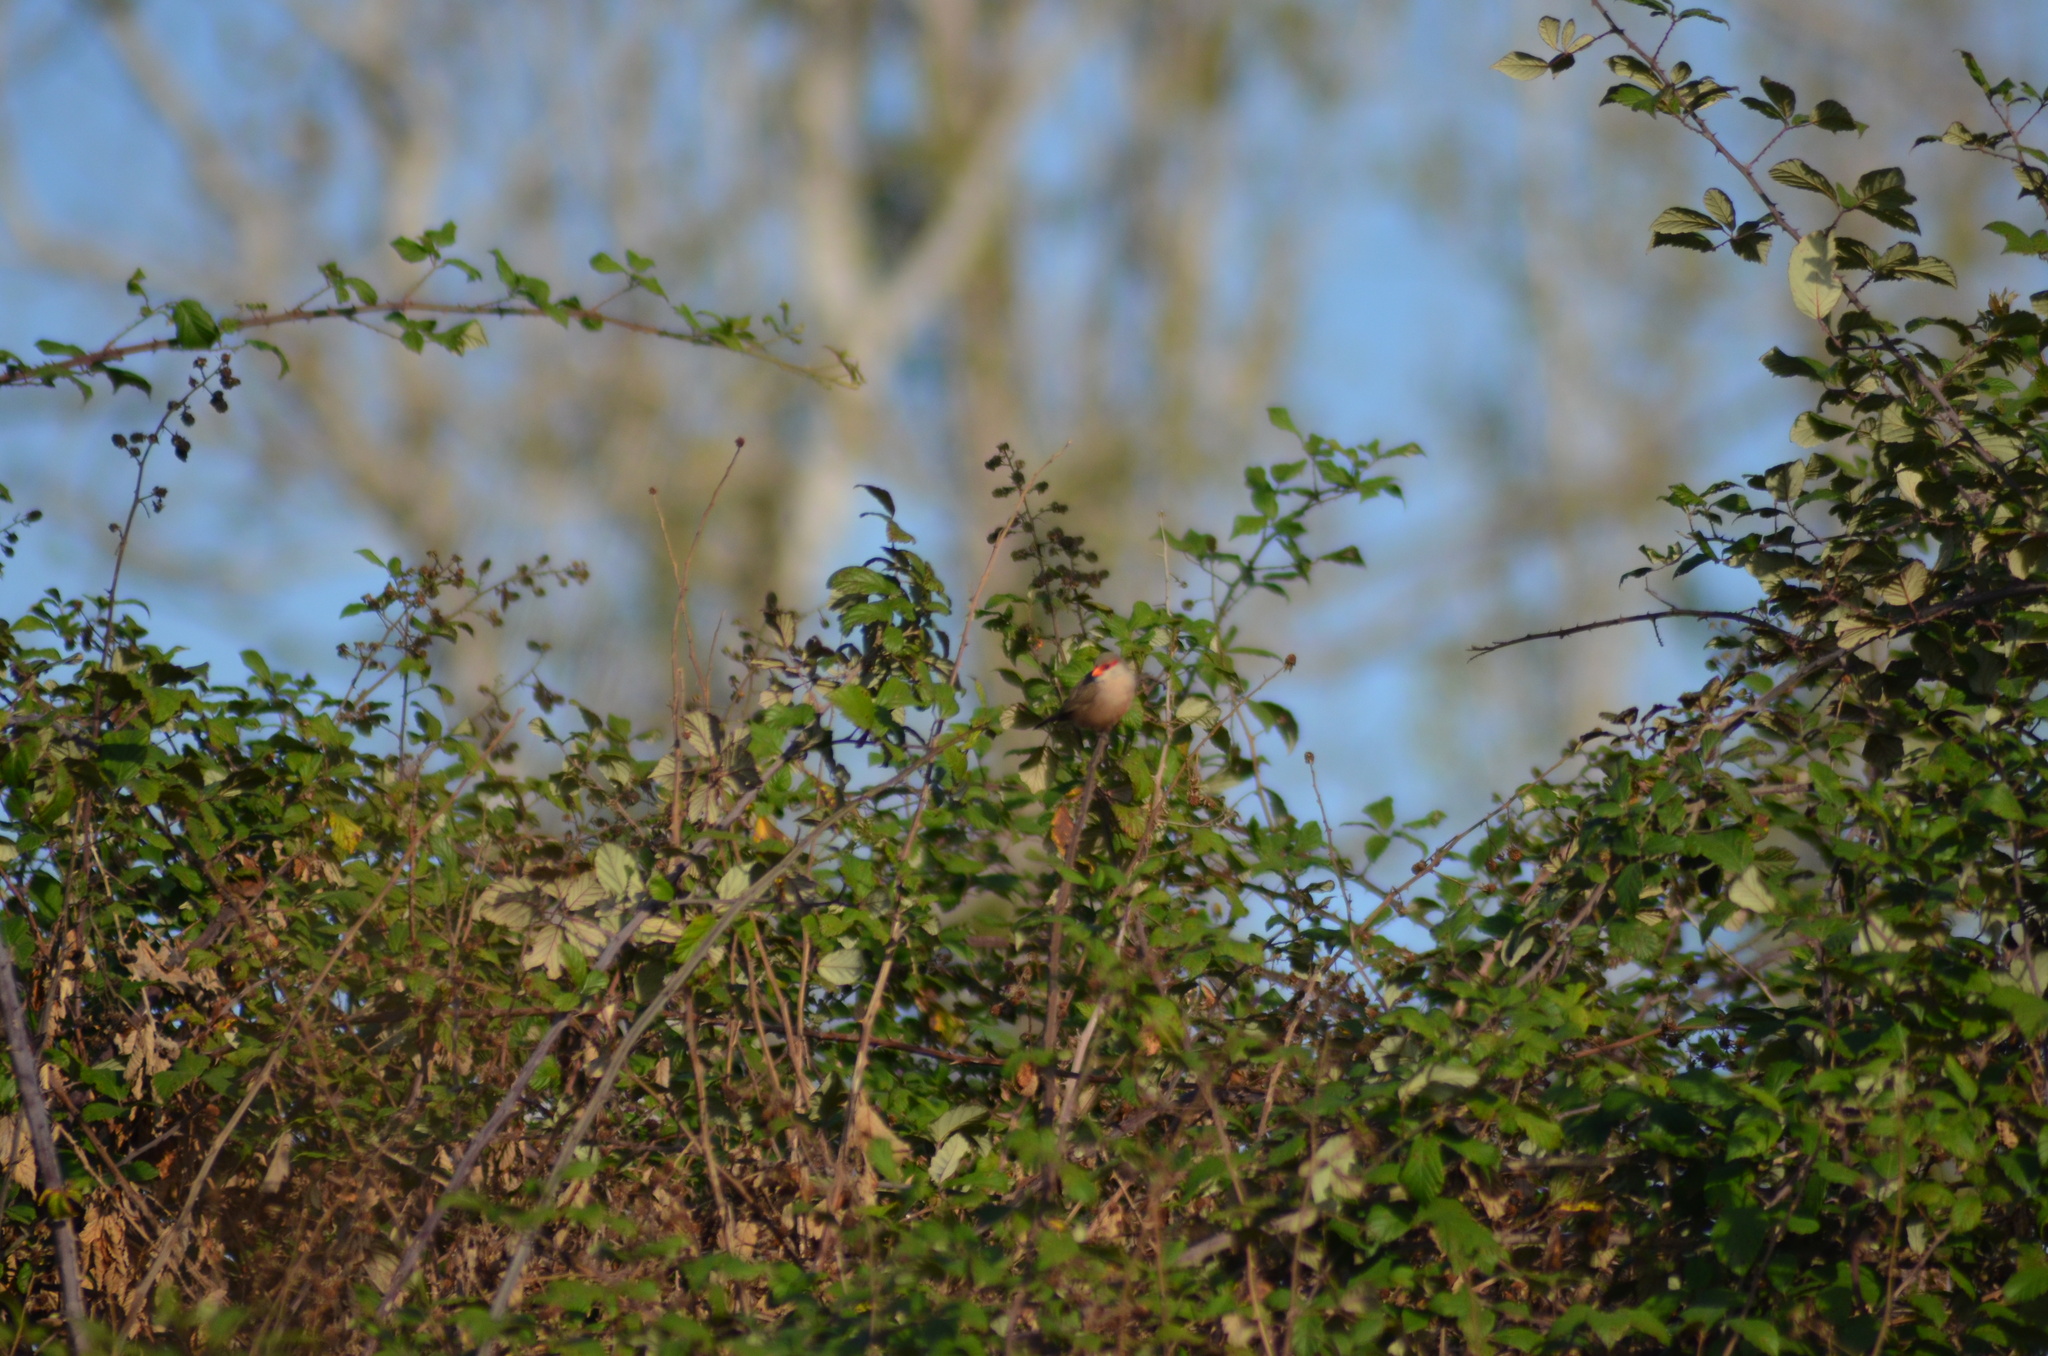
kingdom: Animalia
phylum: Chordata
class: Aves
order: Passeriformes
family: Estrildidae
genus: Estrilda
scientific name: Estrilda astrild
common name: Common waxbill
